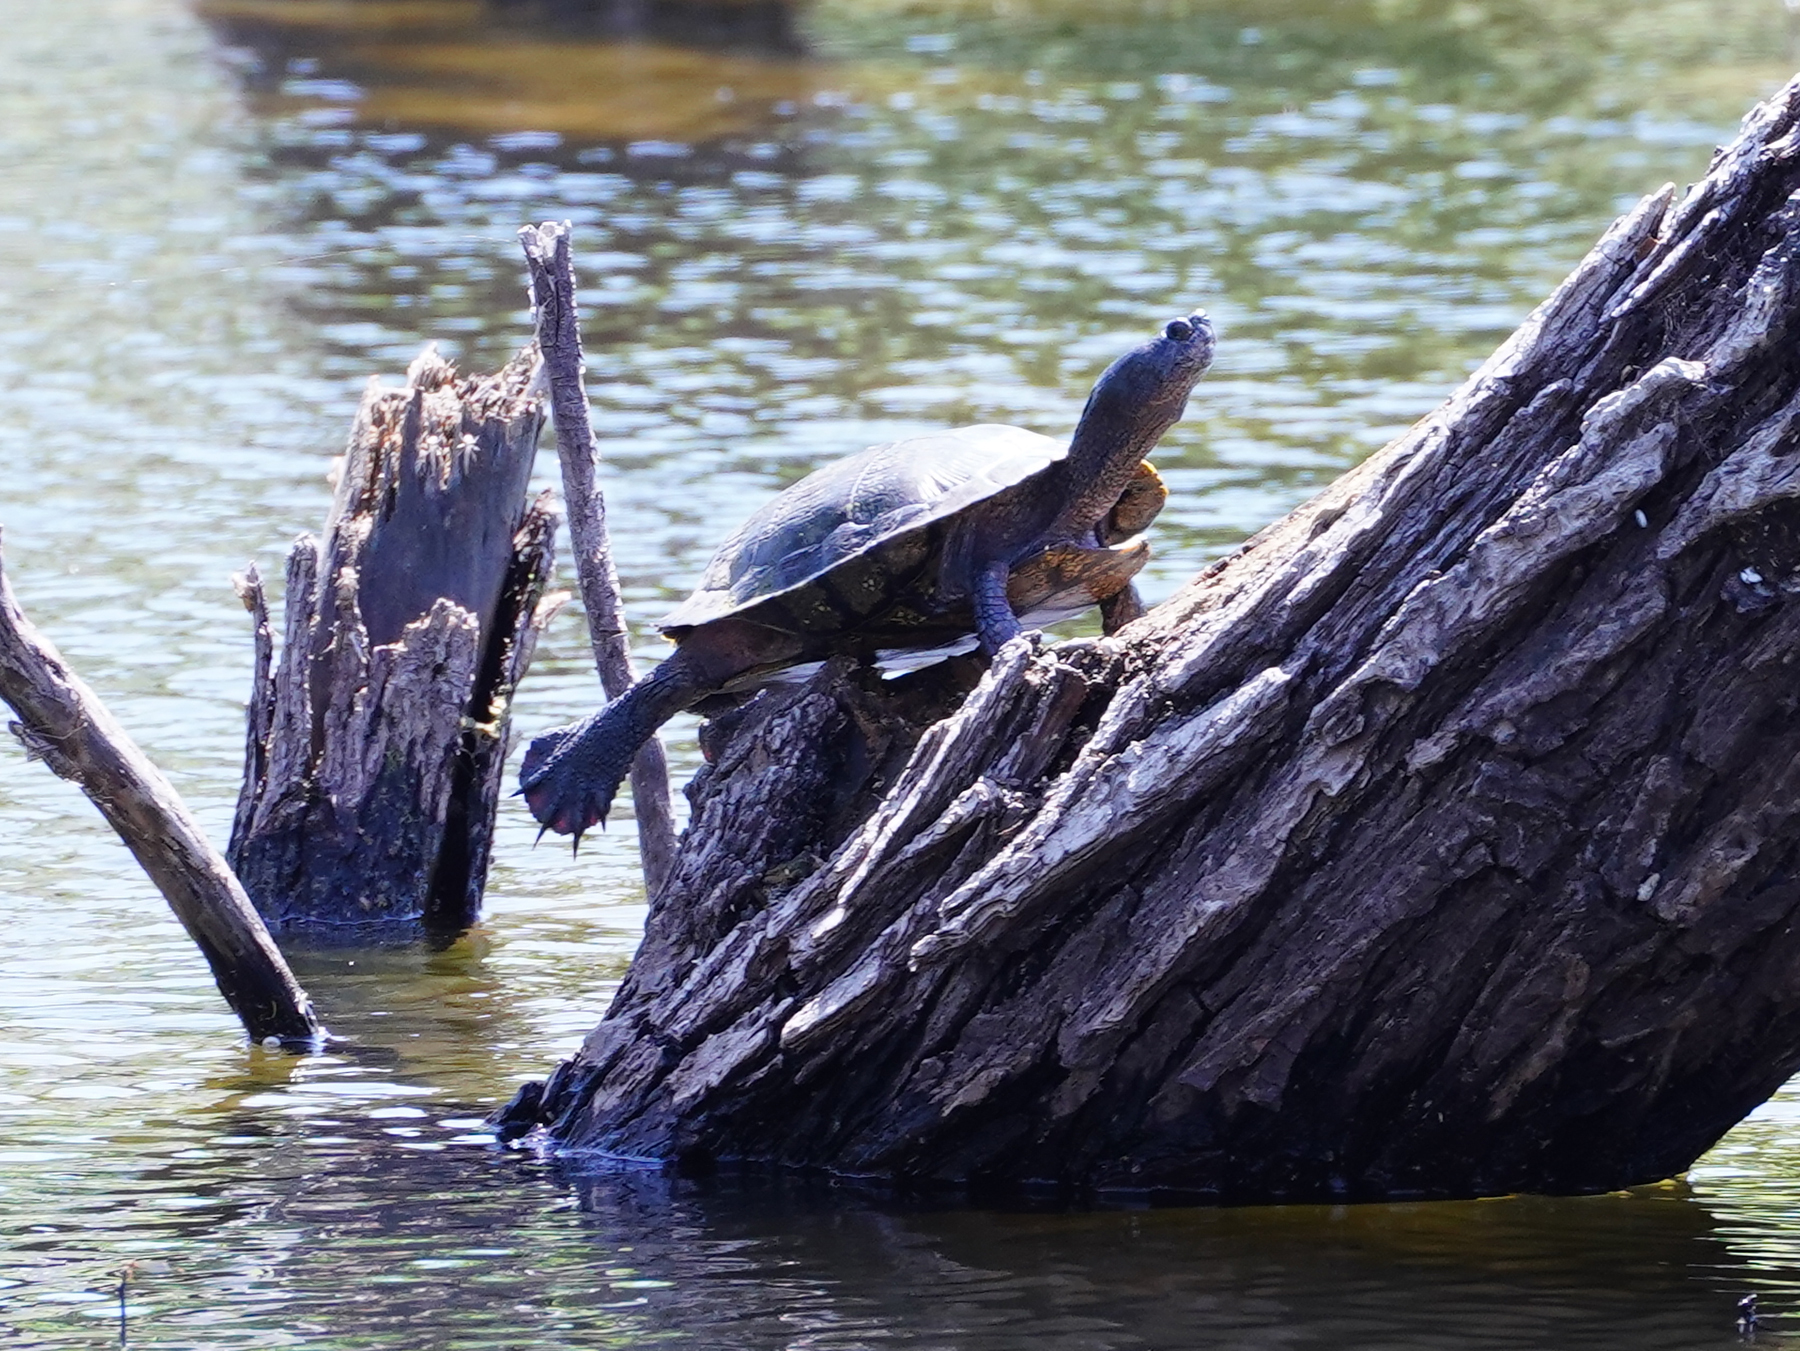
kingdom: Animalia
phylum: Chordata
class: Testudines
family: Emydidae
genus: Trachemys
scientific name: Trachemys scripta
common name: Slider
